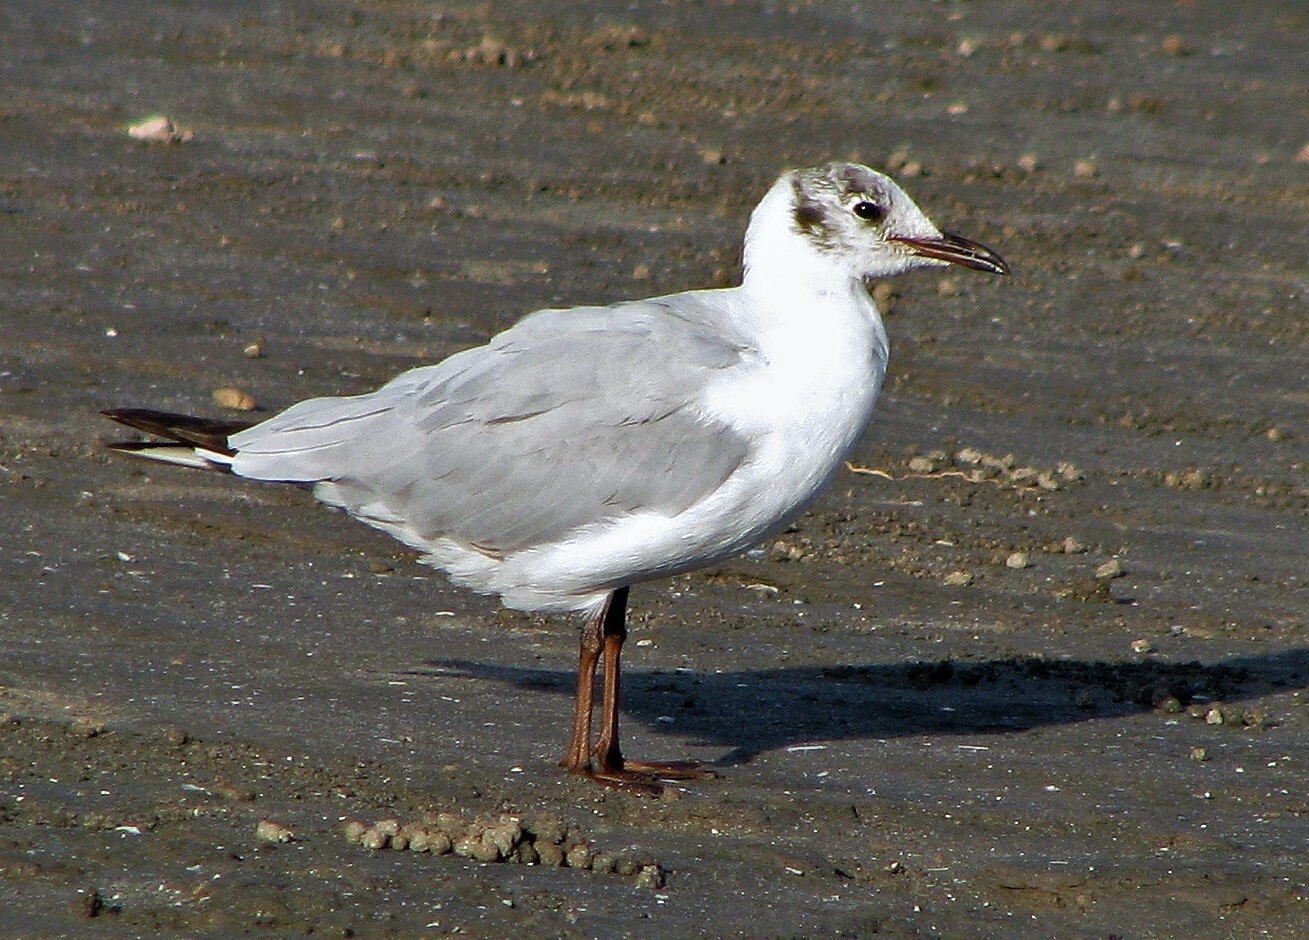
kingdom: Animalia
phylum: Chordata
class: Aves
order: Charadriiformes
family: Laridae
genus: Chroicocephalus
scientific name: Chroicocephalus cirrocephalus
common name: Grey-headed gull
